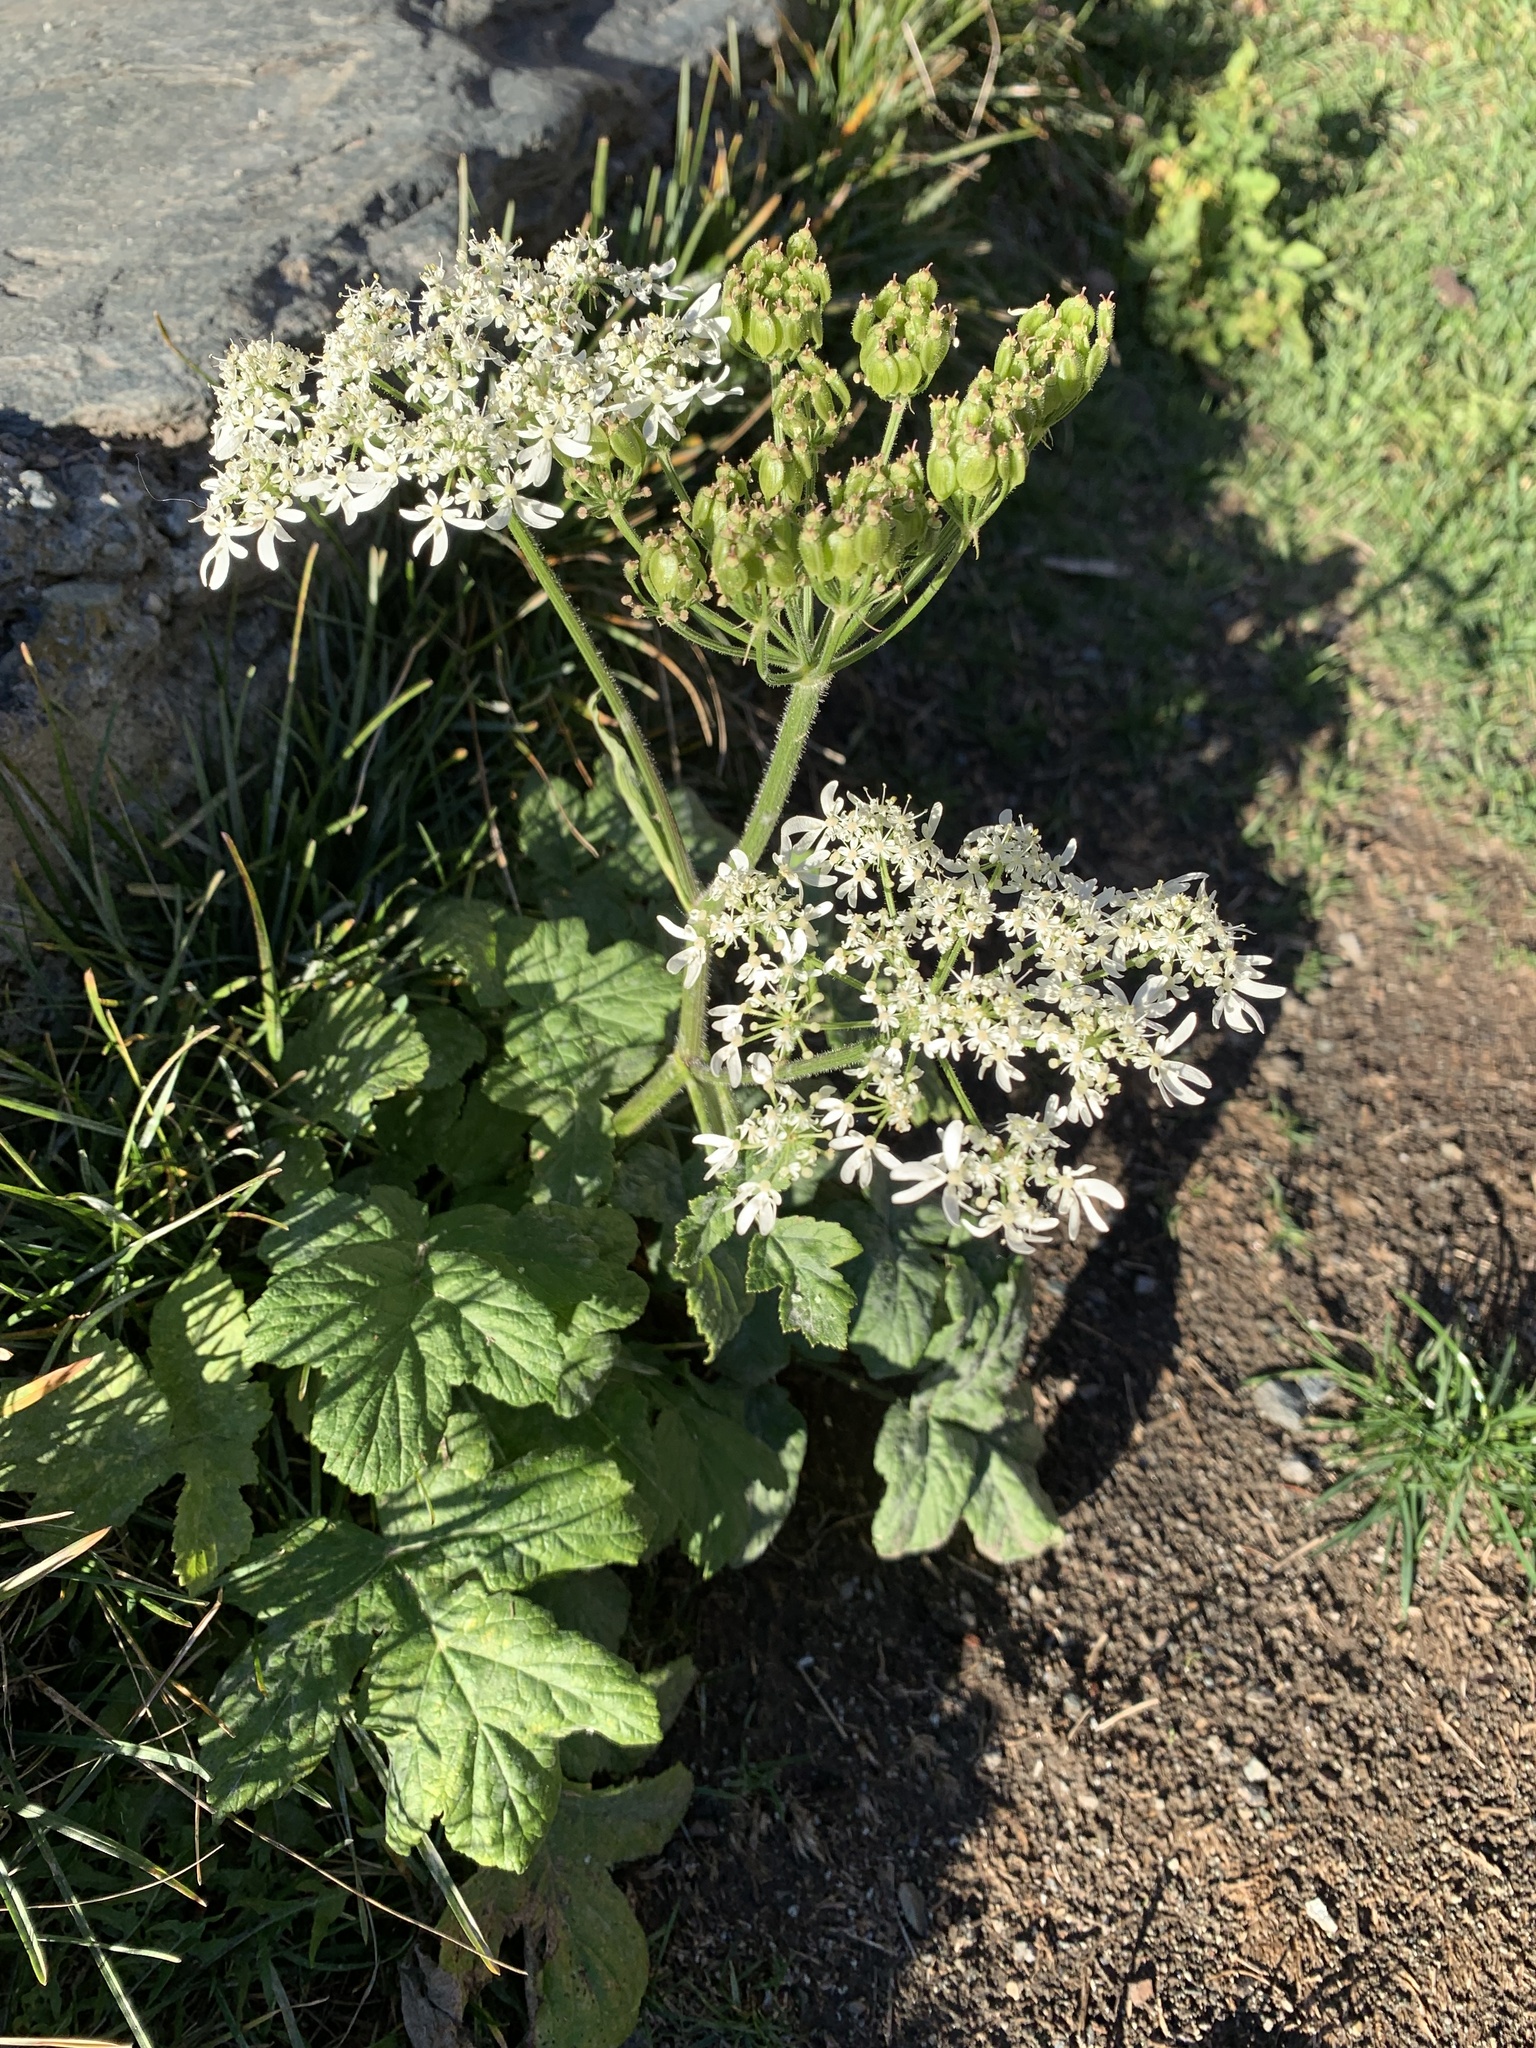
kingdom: Plantae
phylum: Tracheophyta
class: Magnoliopsida
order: Apiales
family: Apiaceae
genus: Heracleum
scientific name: Heracleum sphondylium
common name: Hogweed
